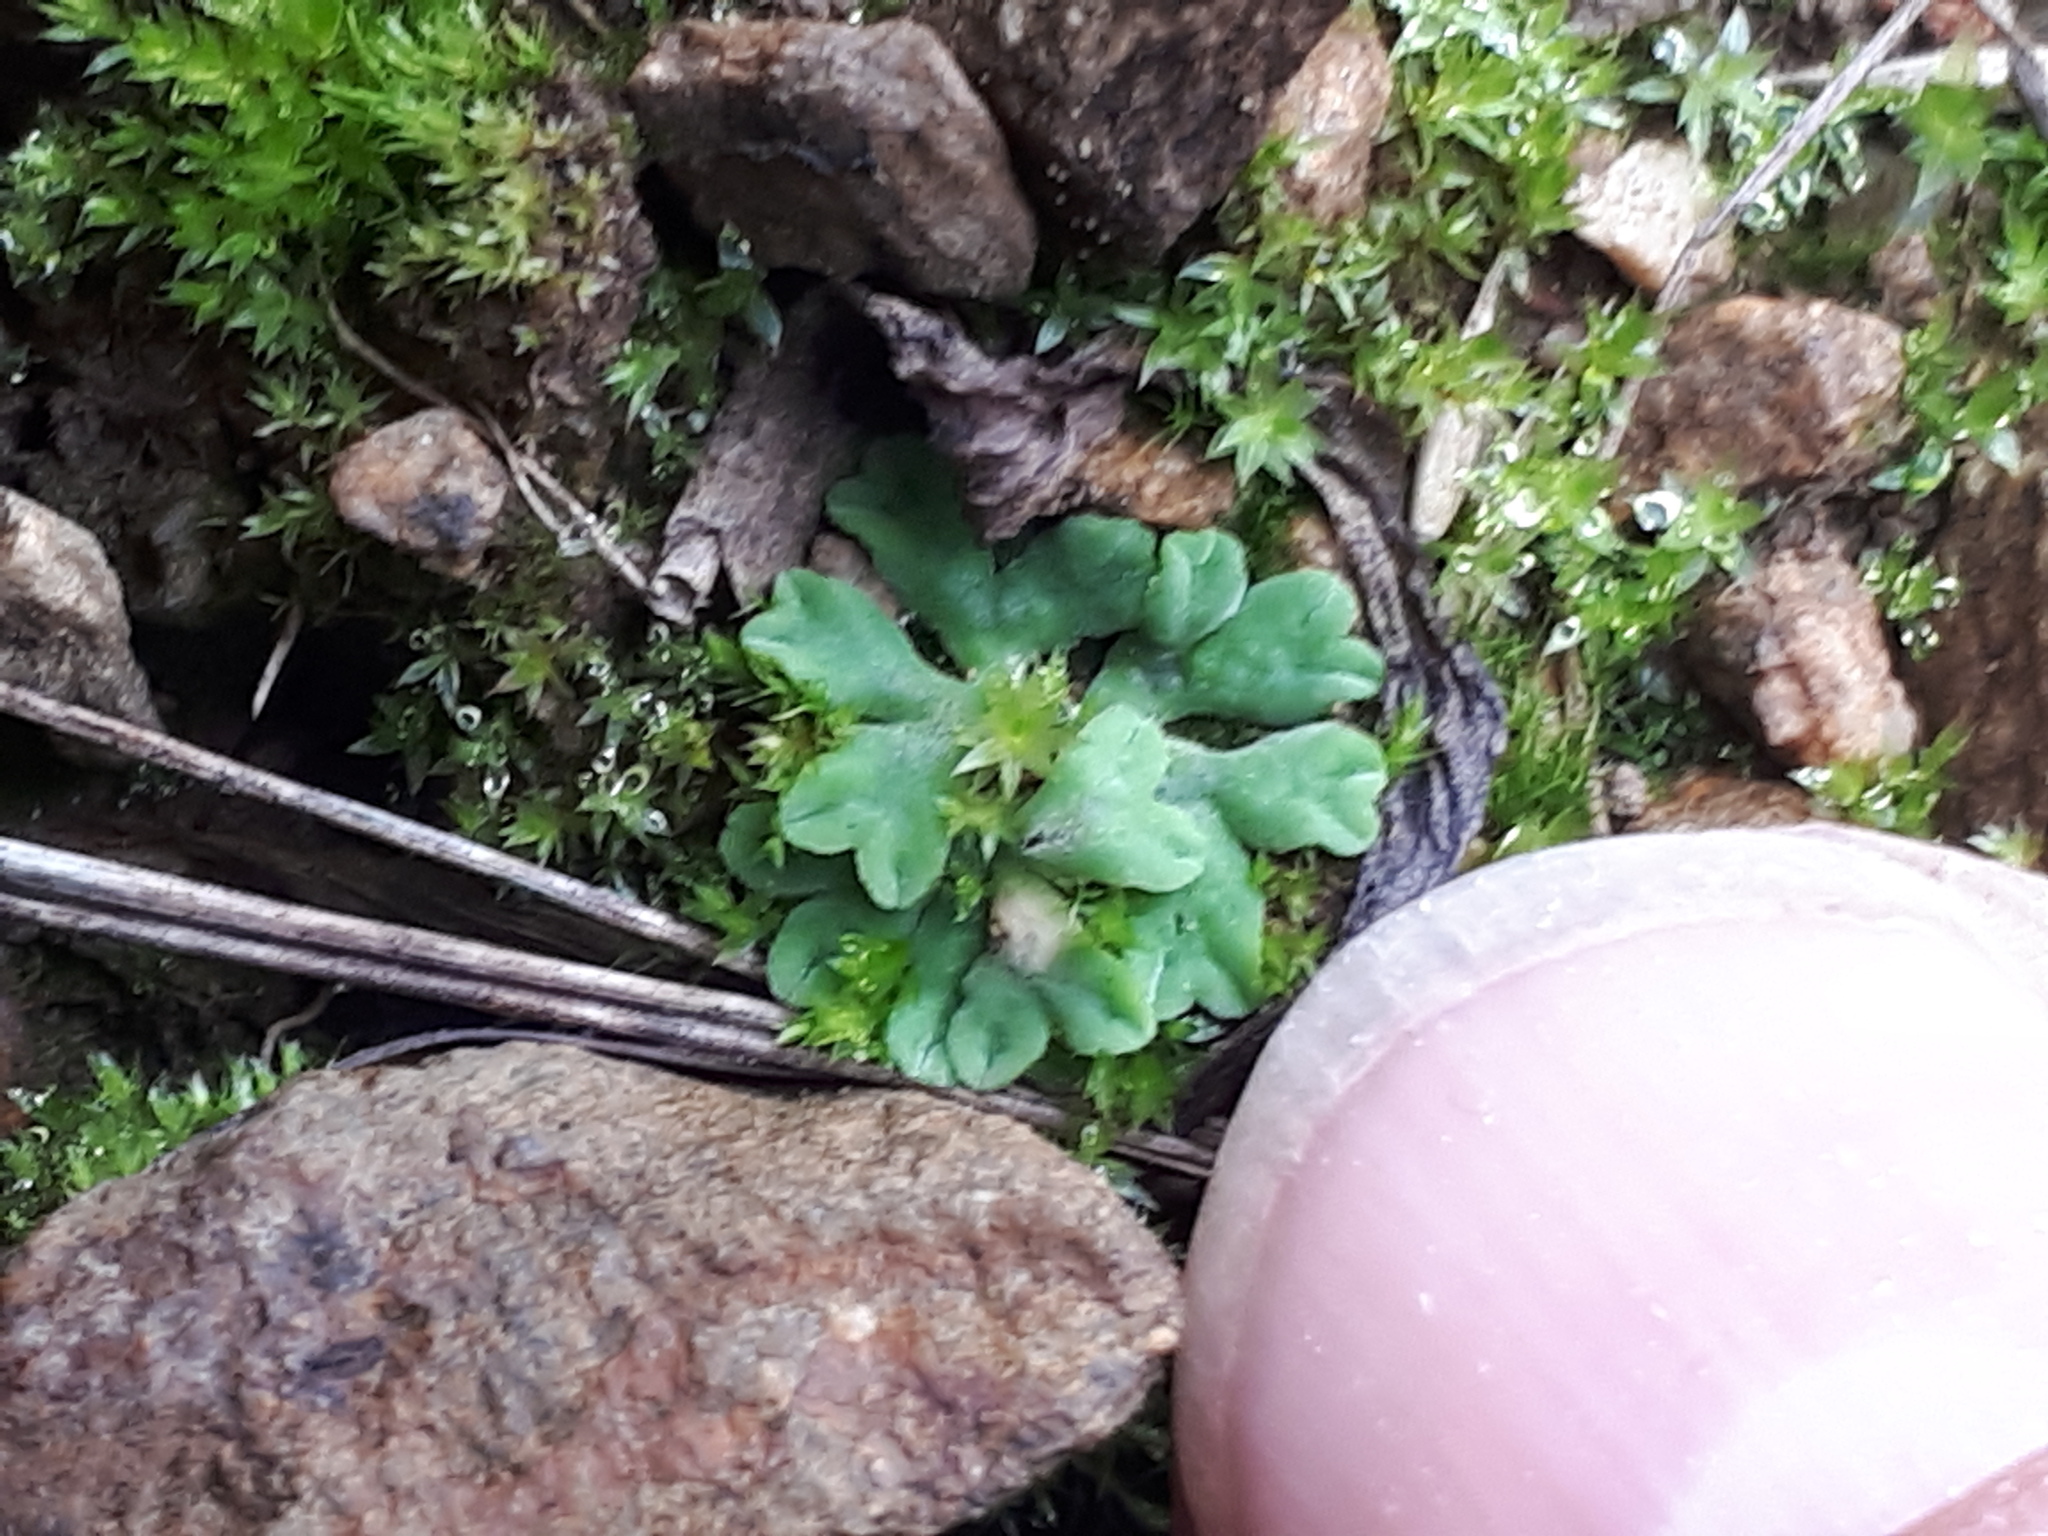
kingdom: Plantae
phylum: Marchantiophyta
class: Marchantiopsida
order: Marchantiales
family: Ricciaceae
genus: Riccia
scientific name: Riccia sorocarpa
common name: Common crystalwort
